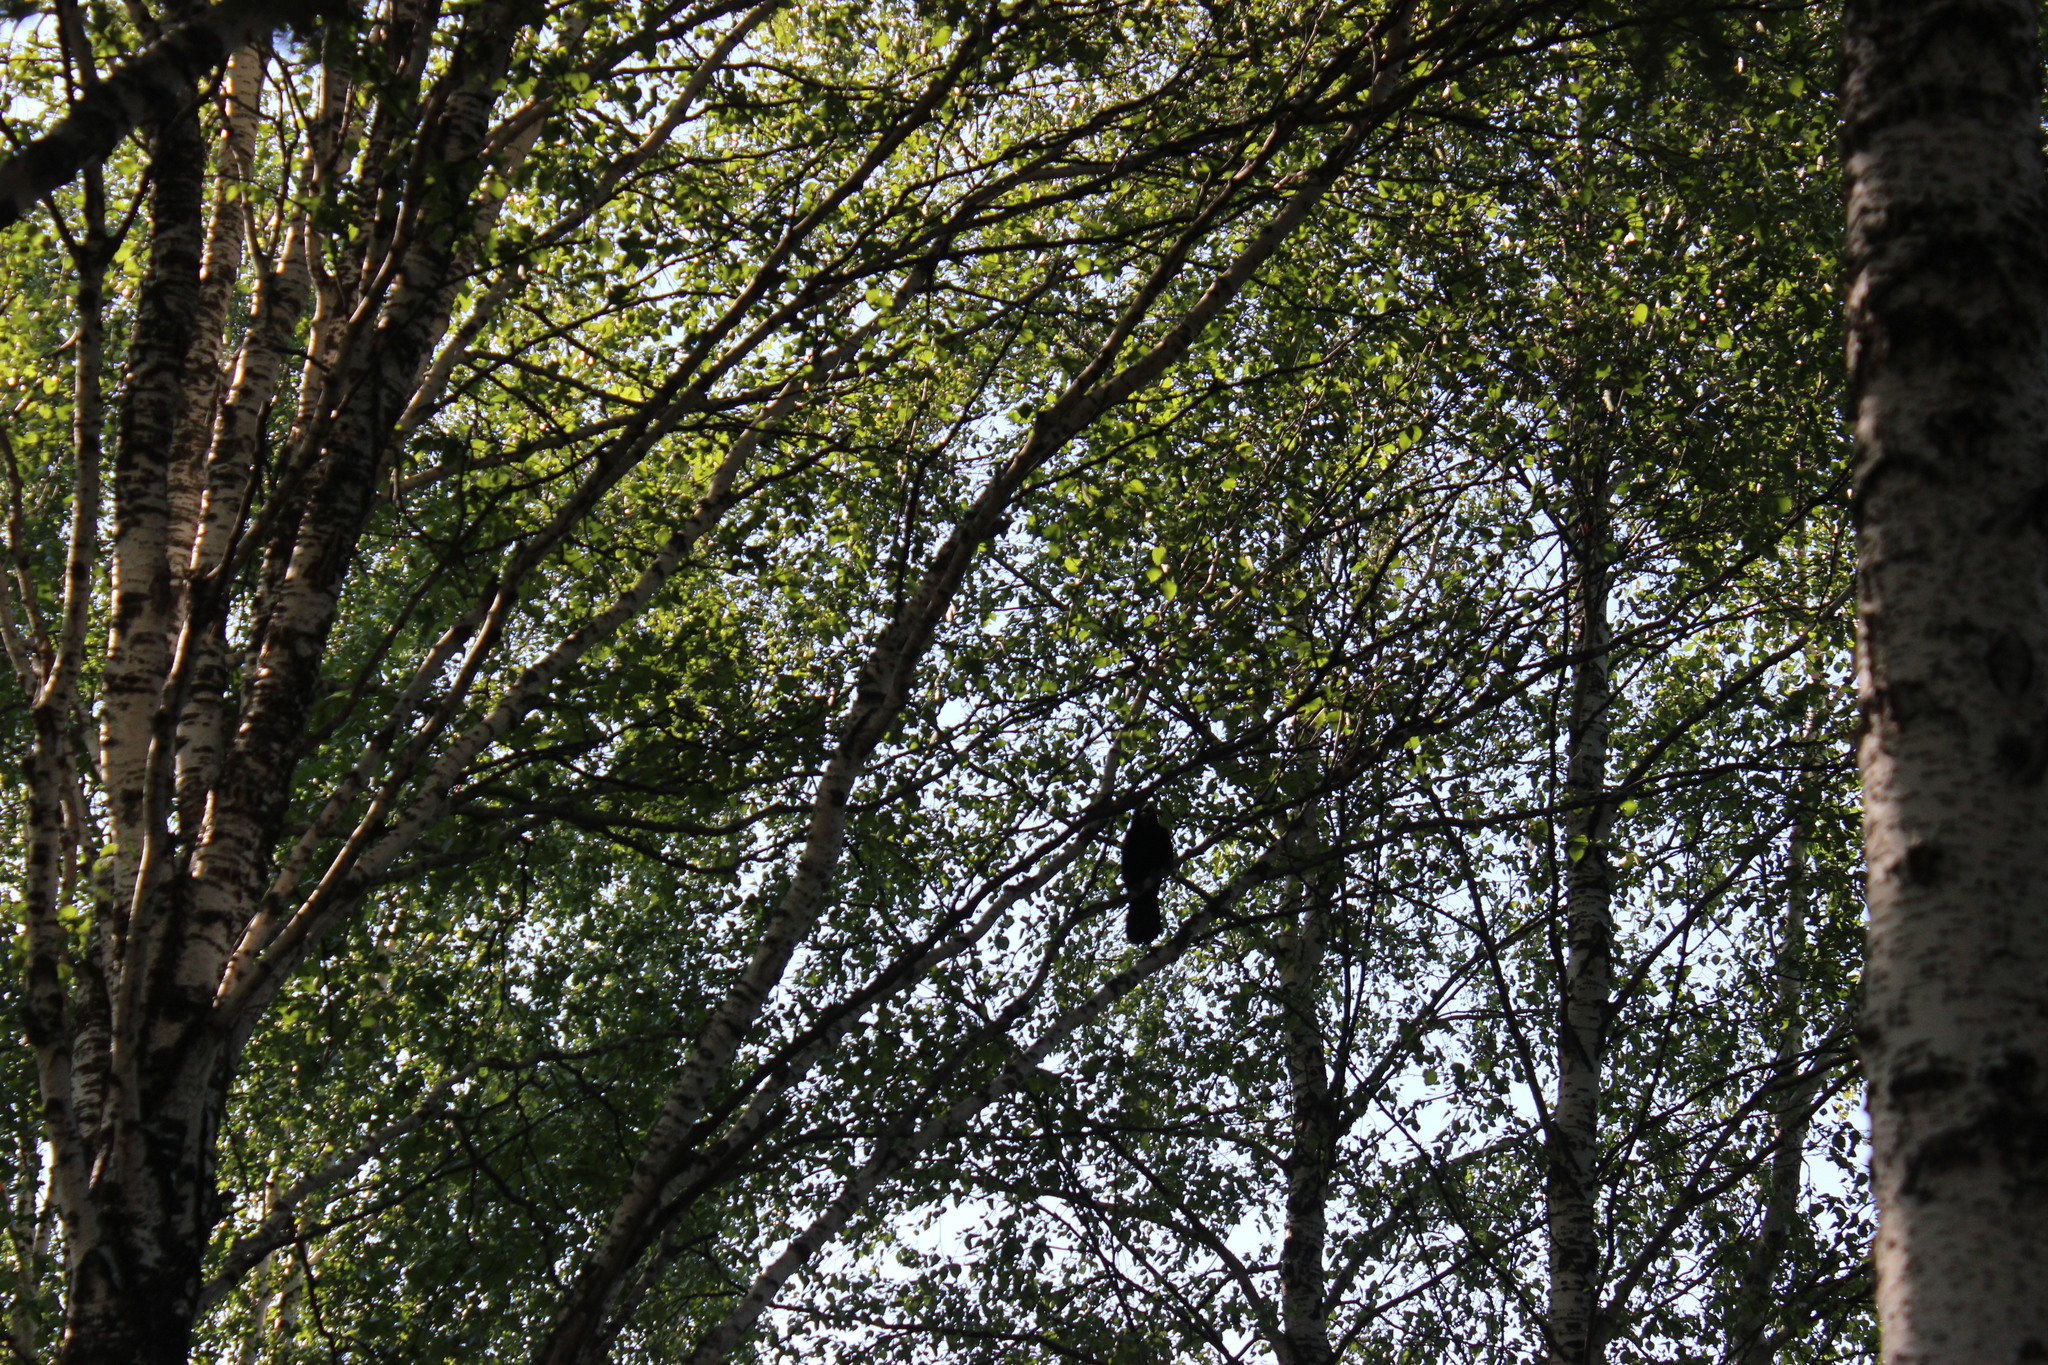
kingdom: Animalia
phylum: Chordata
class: Aves
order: Passeriformes
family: Corvidae
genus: Corvus
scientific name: Corvus corax
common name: Common raven
